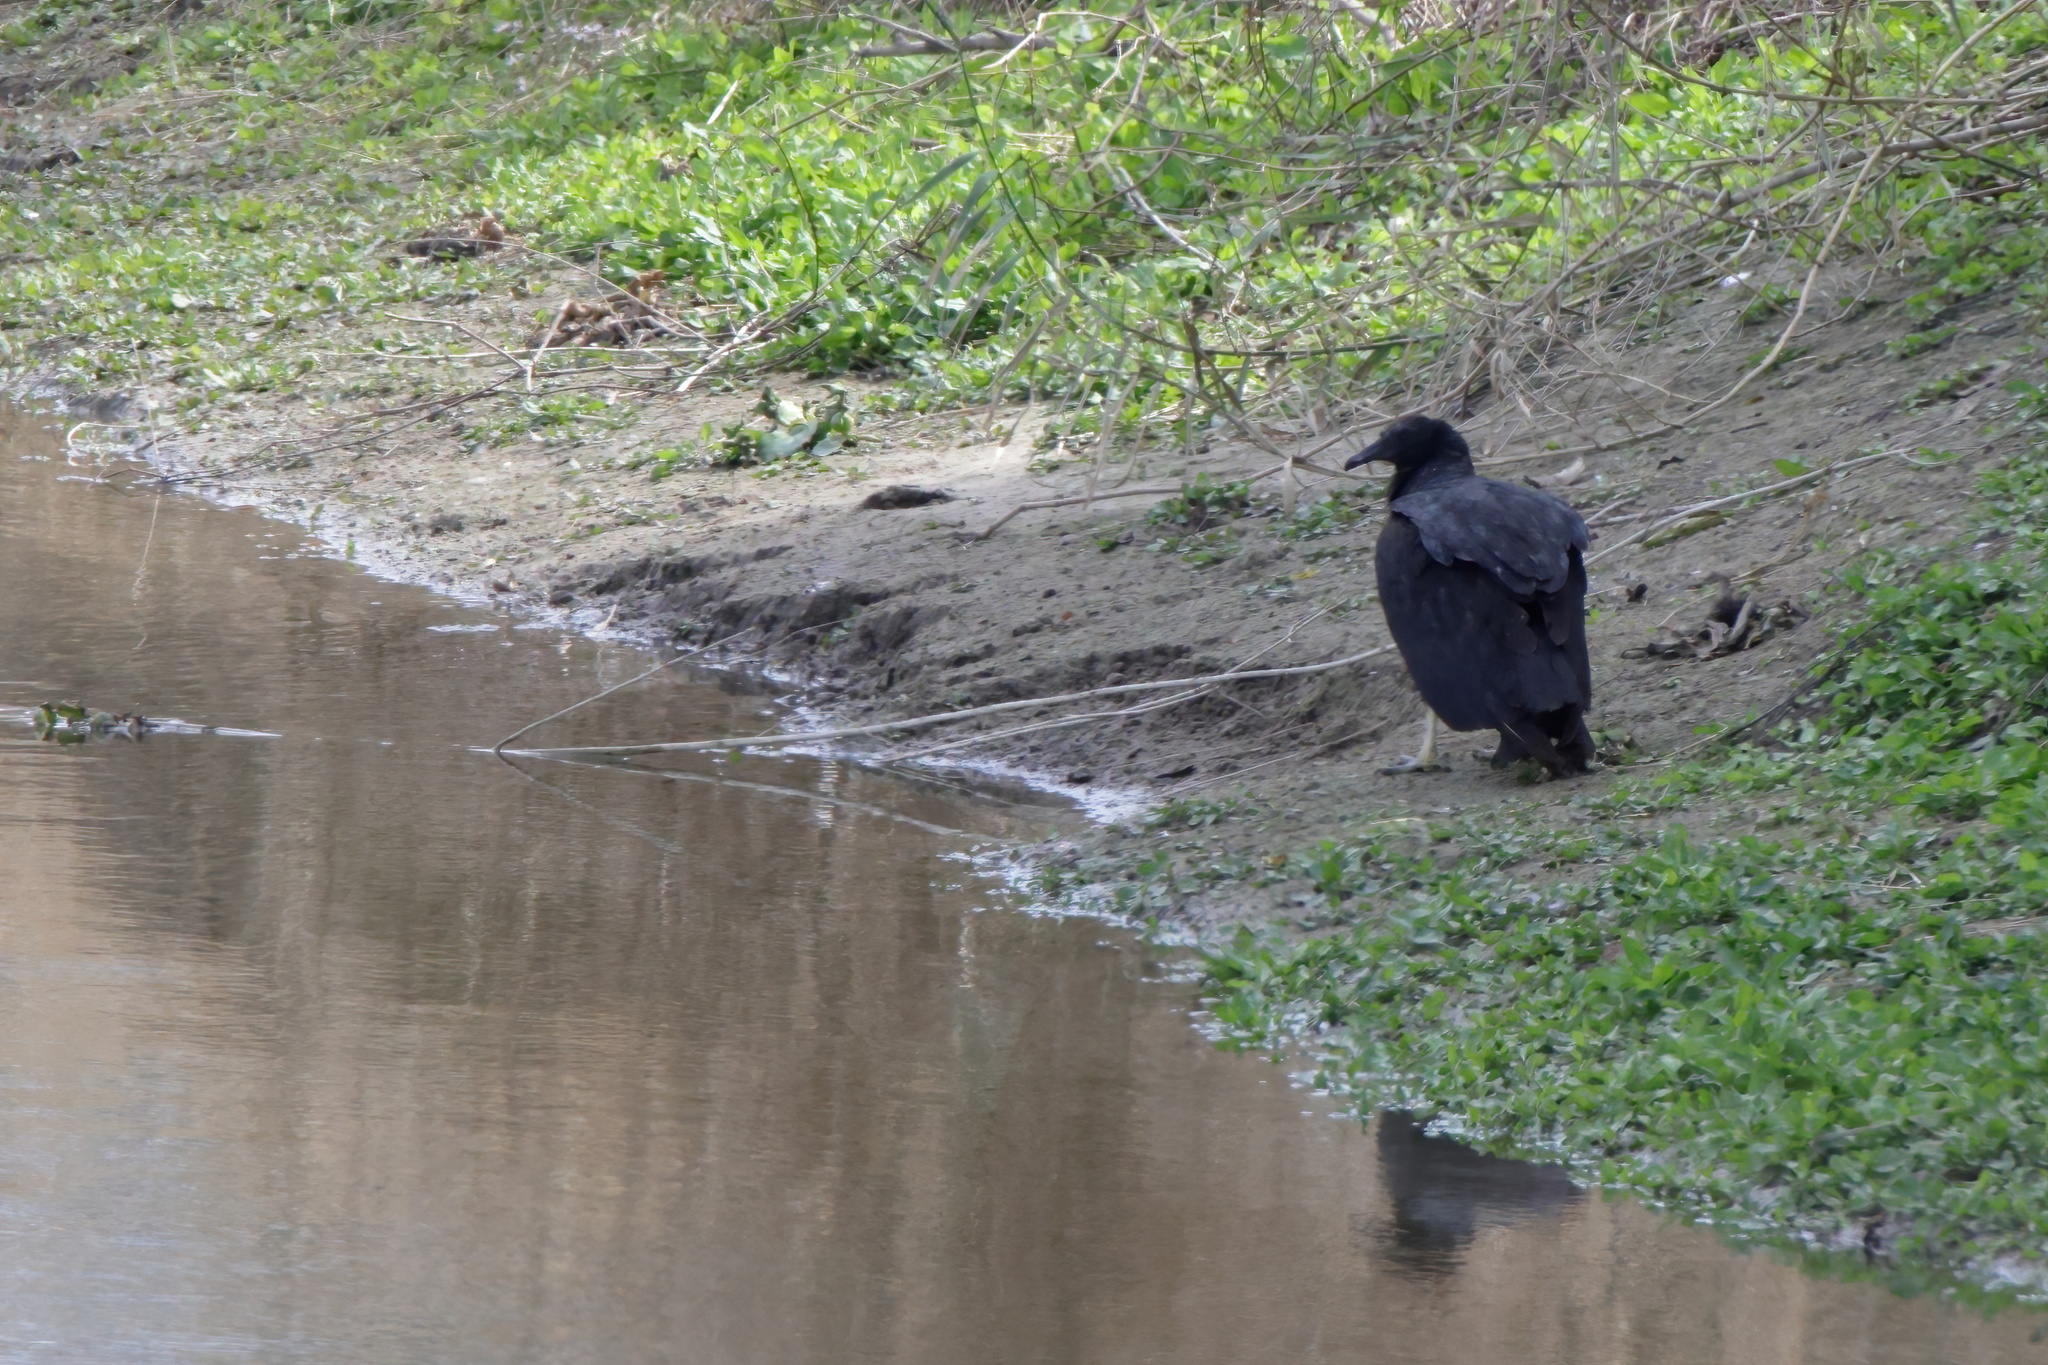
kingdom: Animalia
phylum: Chordata
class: Aves
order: Accipitriformes
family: Cathartidae
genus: Coragyps
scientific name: Coragyps atratus
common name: Black vulture
